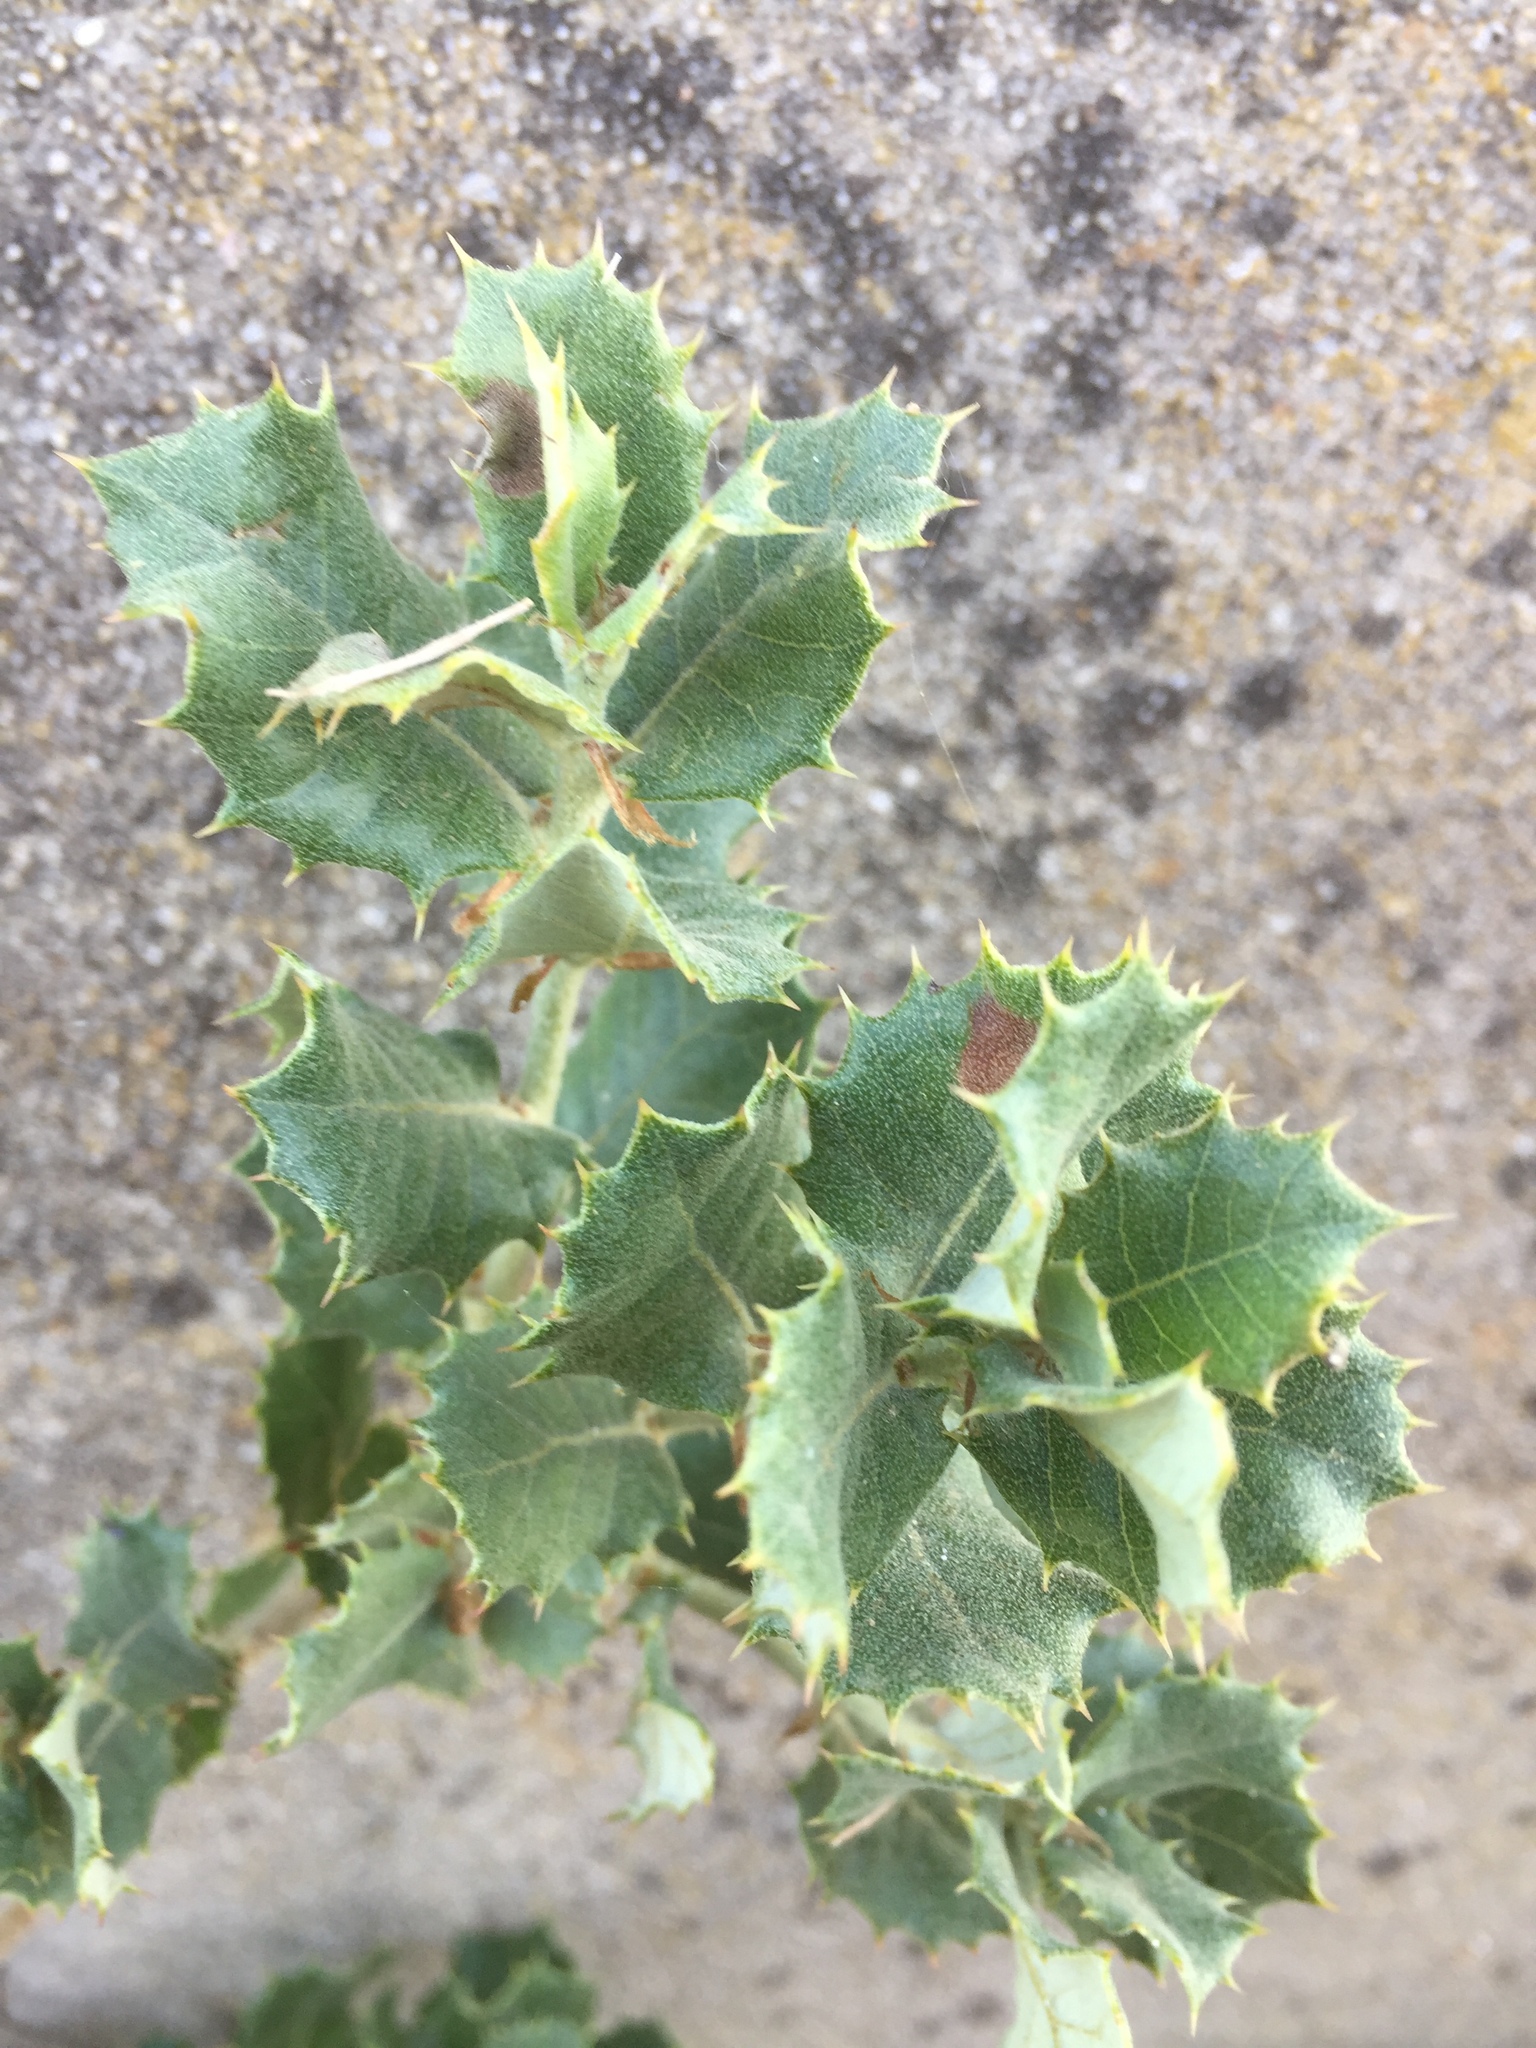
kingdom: Plantae
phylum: Tracheophyta
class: Magnoliopsida
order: Fagales
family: Fagaceae
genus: Quercus
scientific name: Quercus rotundifolia
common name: Holm oak
